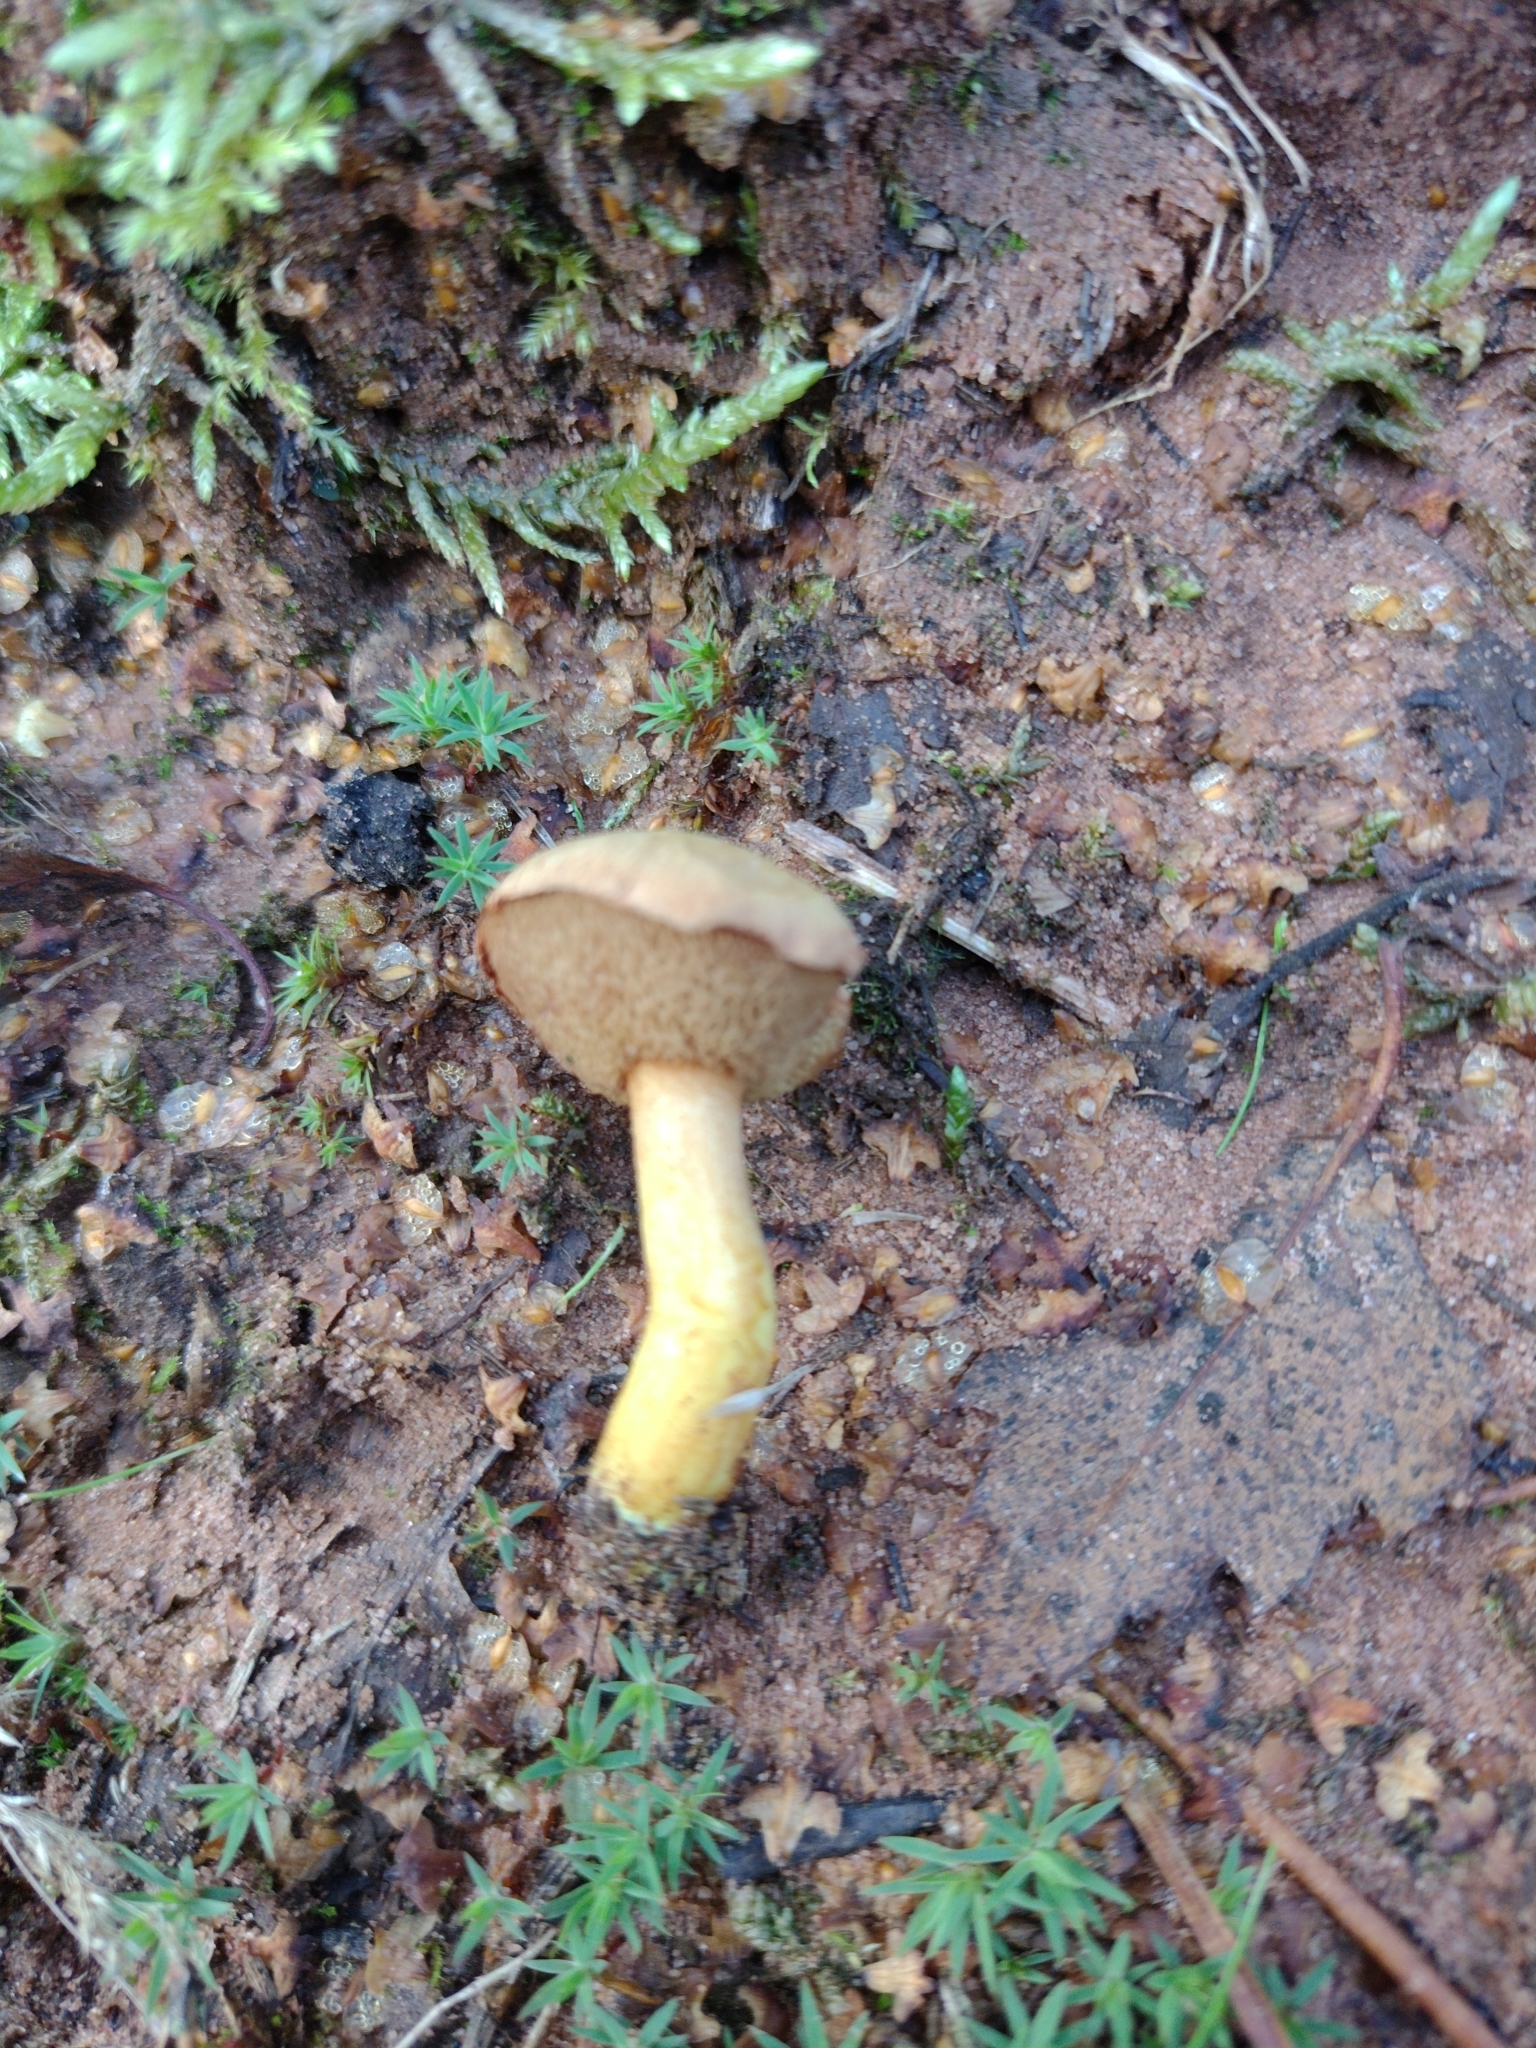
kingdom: Fungi
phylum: Basidiomycota
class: Agaricomycetes
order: Boletales
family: Boletaceae
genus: Chalciporus
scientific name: Chalciporus piperatus
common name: Peppery bolete
